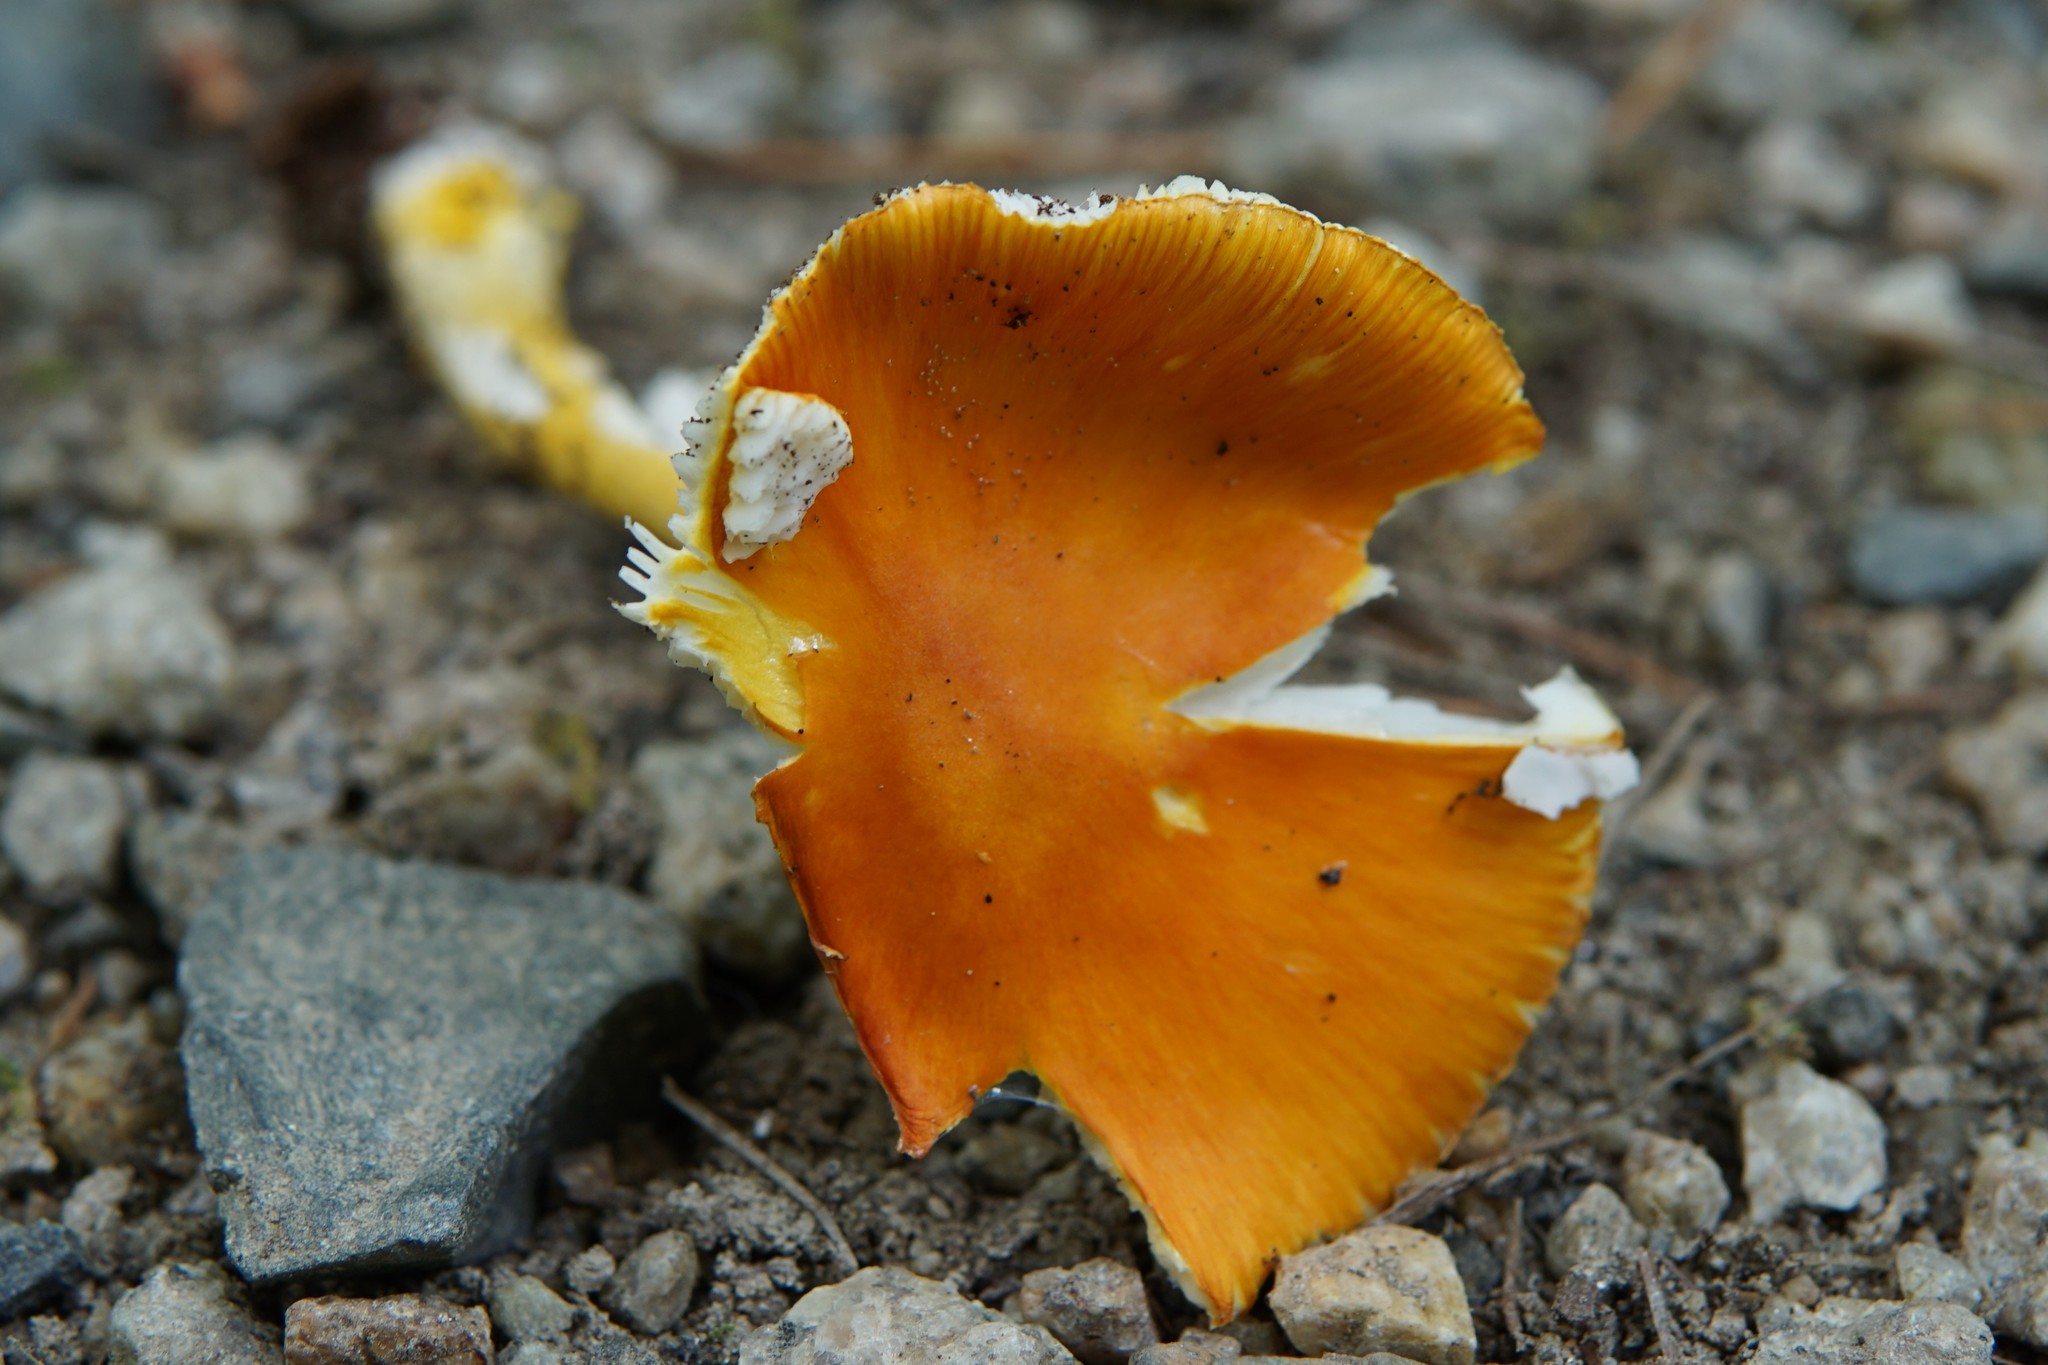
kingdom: Fungi
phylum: Basidiomycota
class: Agaricomycetes
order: Agaricales
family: Amanitaceae
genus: Amanita
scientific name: Amanita flavoconia
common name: Yellow patches
